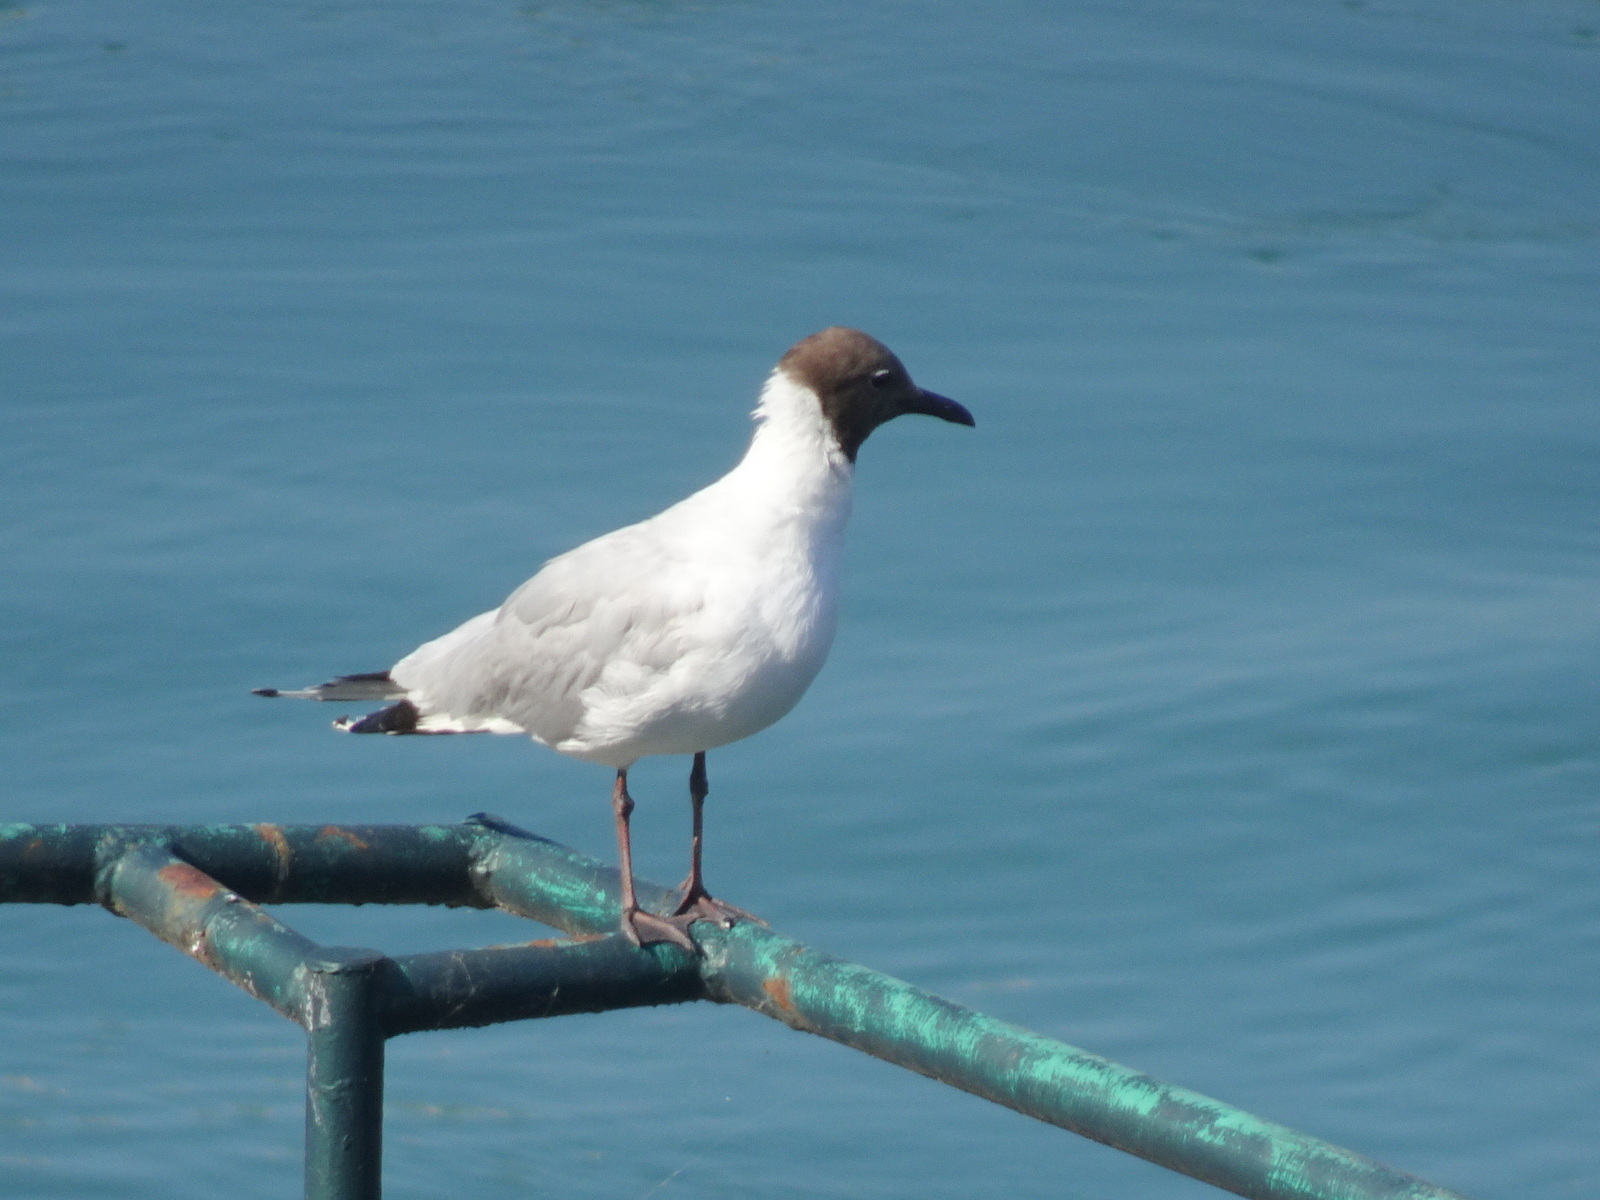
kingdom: Animalia
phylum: Chordata
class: Aves
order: Charadriiformes
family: Laridae
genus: Chroicocephalus
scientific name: Chroicocephalus ridibundus
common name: Black-headed gull
